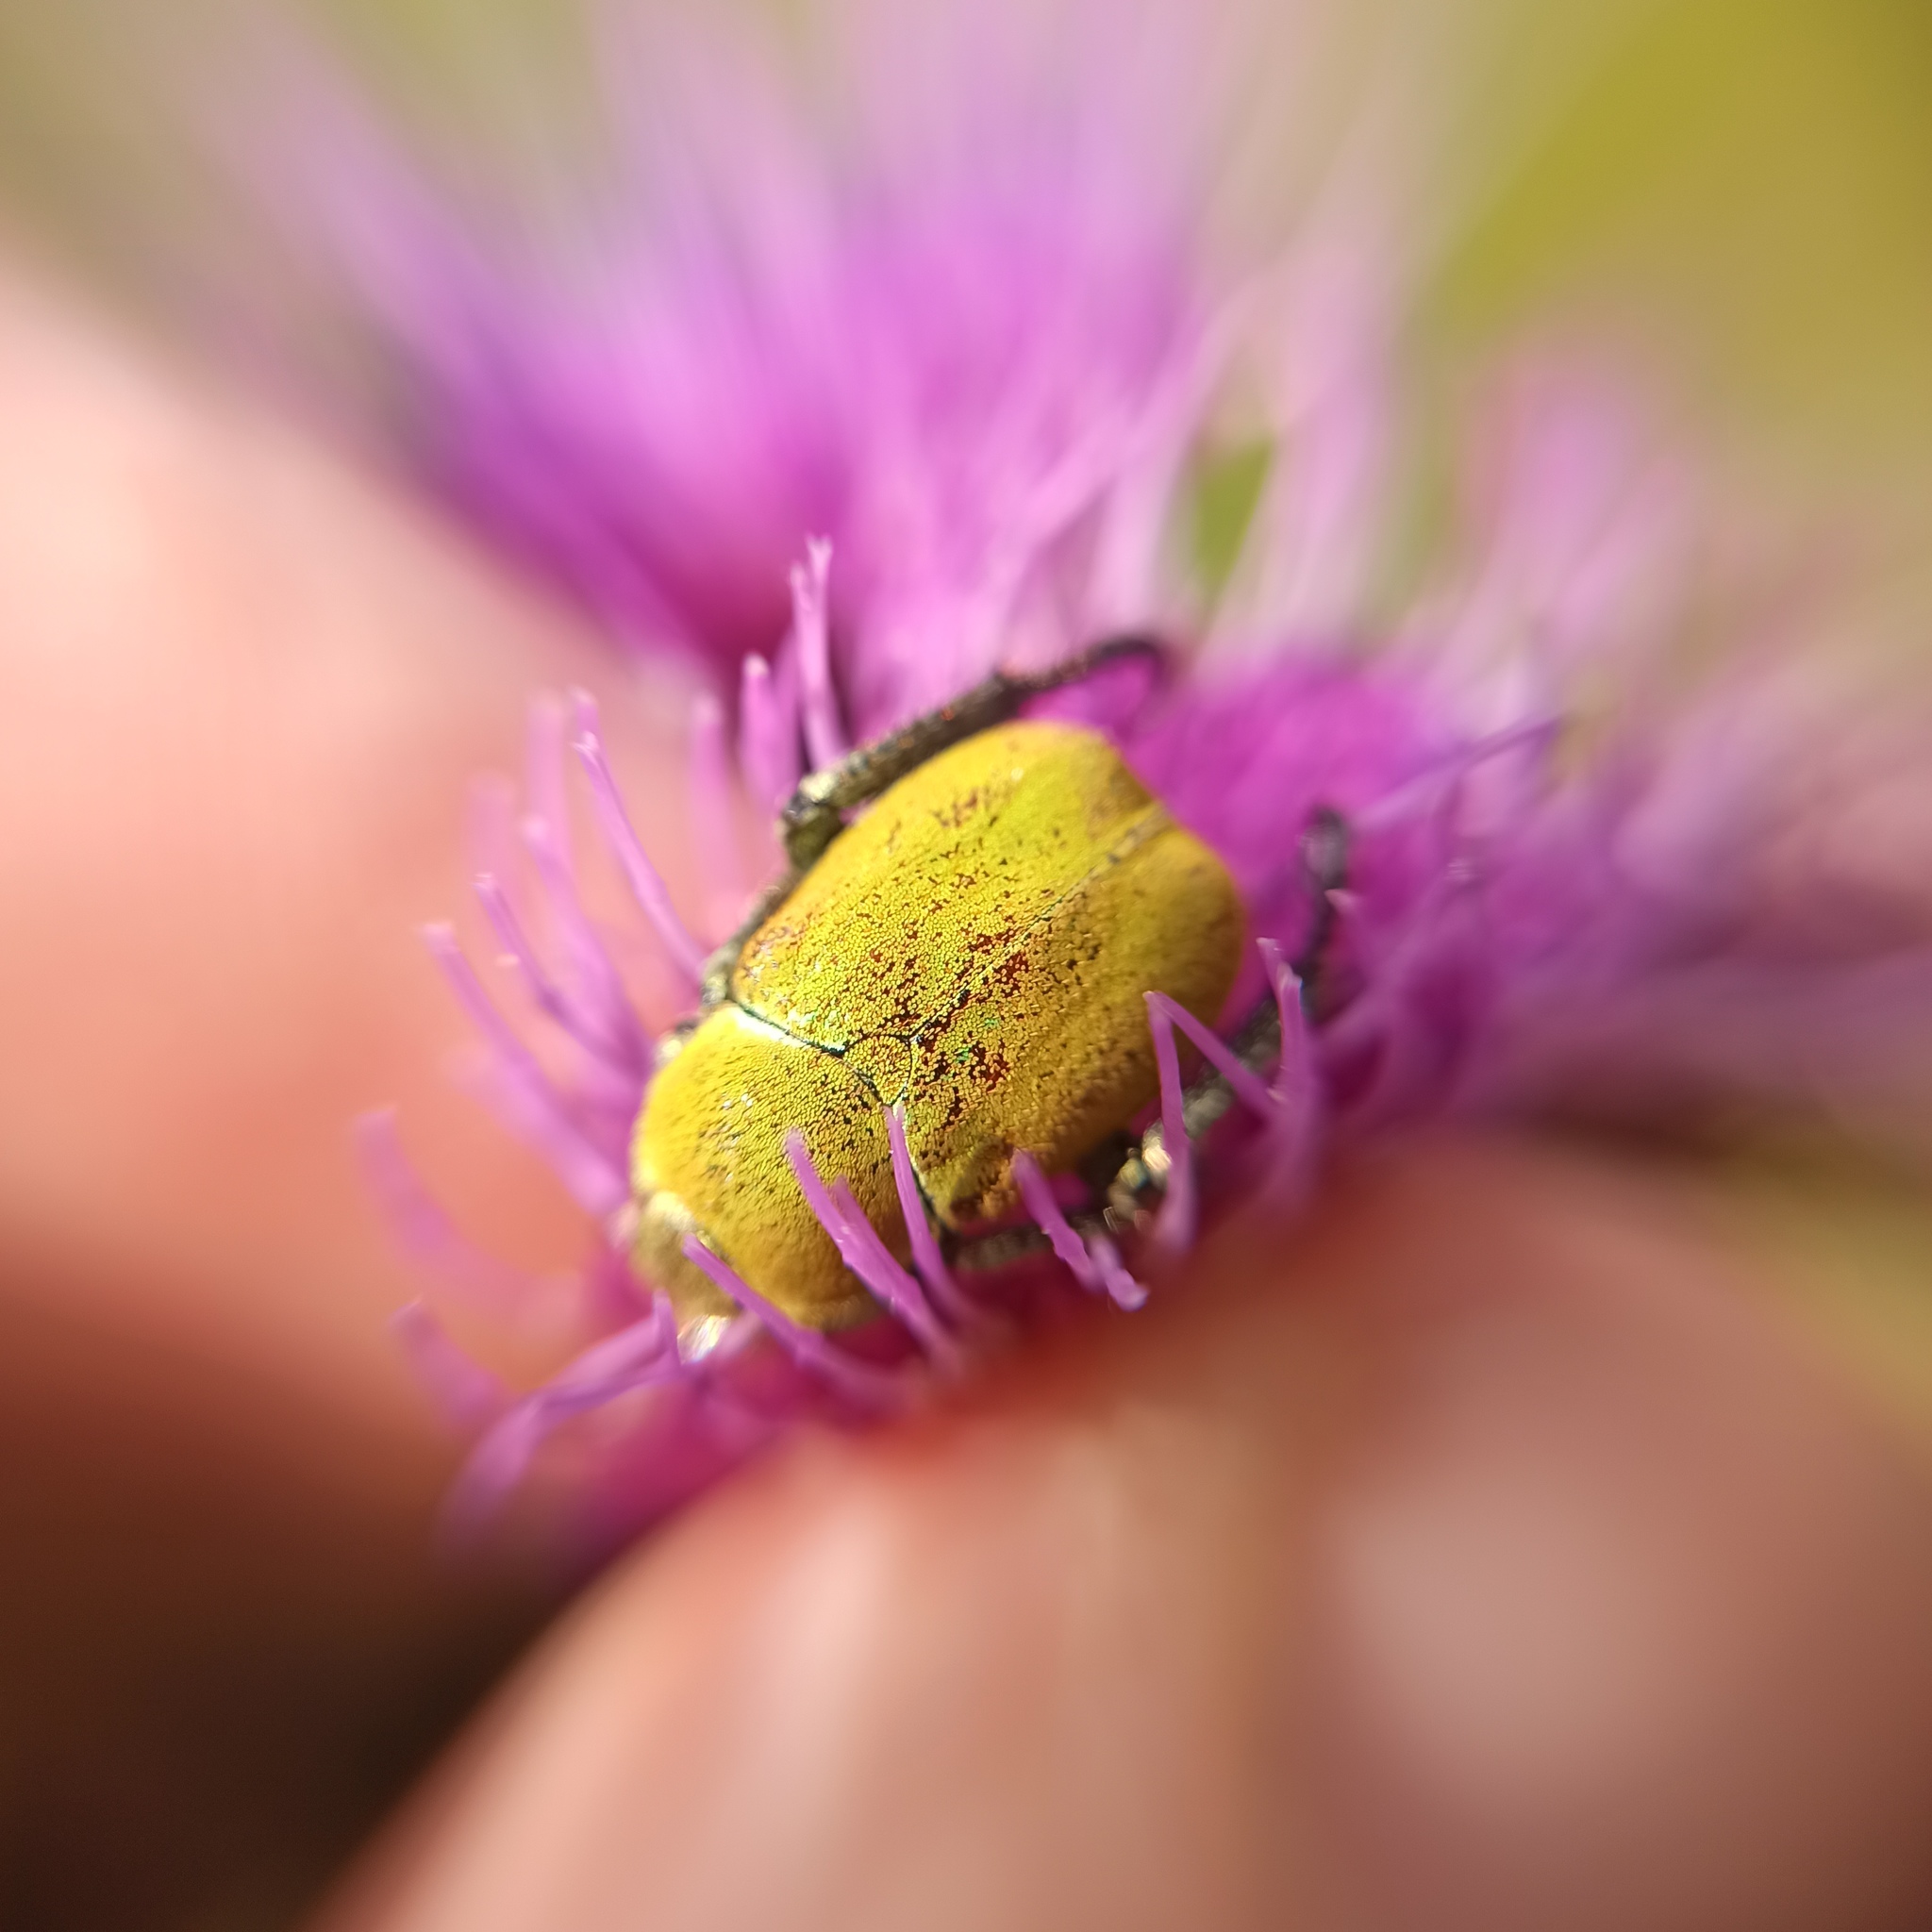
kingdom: Animalia
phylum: Arthropoda
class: Insecta
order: Coleoptera
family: Scarabaeidae
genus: Hoplia
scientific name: Hoplia argentea
